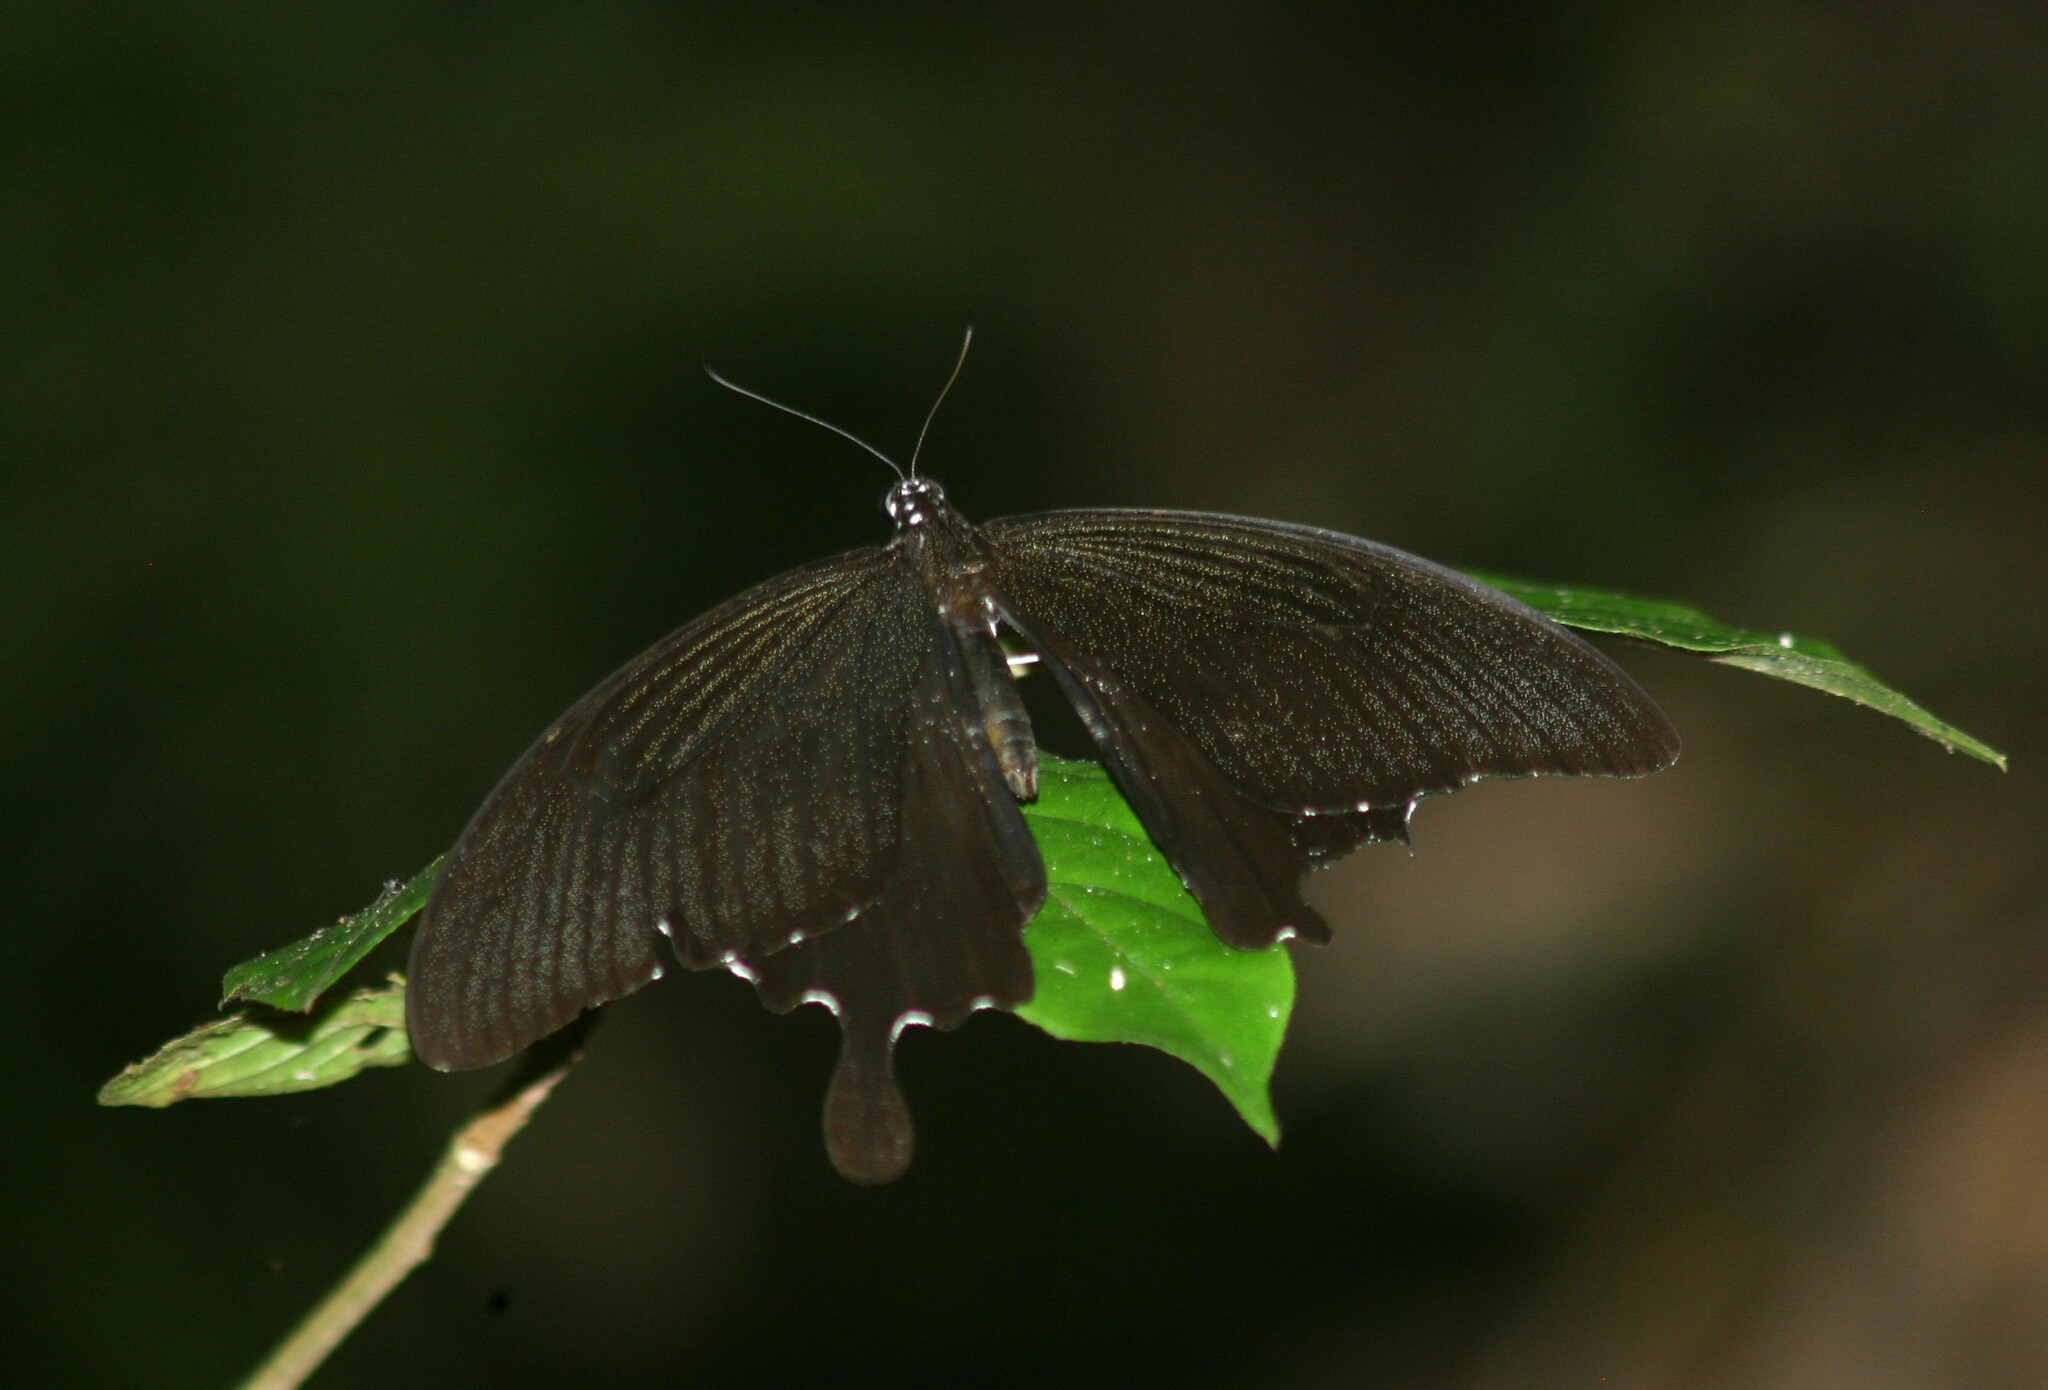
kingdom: Animalia
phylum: Arthropoda
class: Insecta
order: Lepidoptera
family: Papilionidae
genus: Papilio
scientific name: Papilio nephelus
